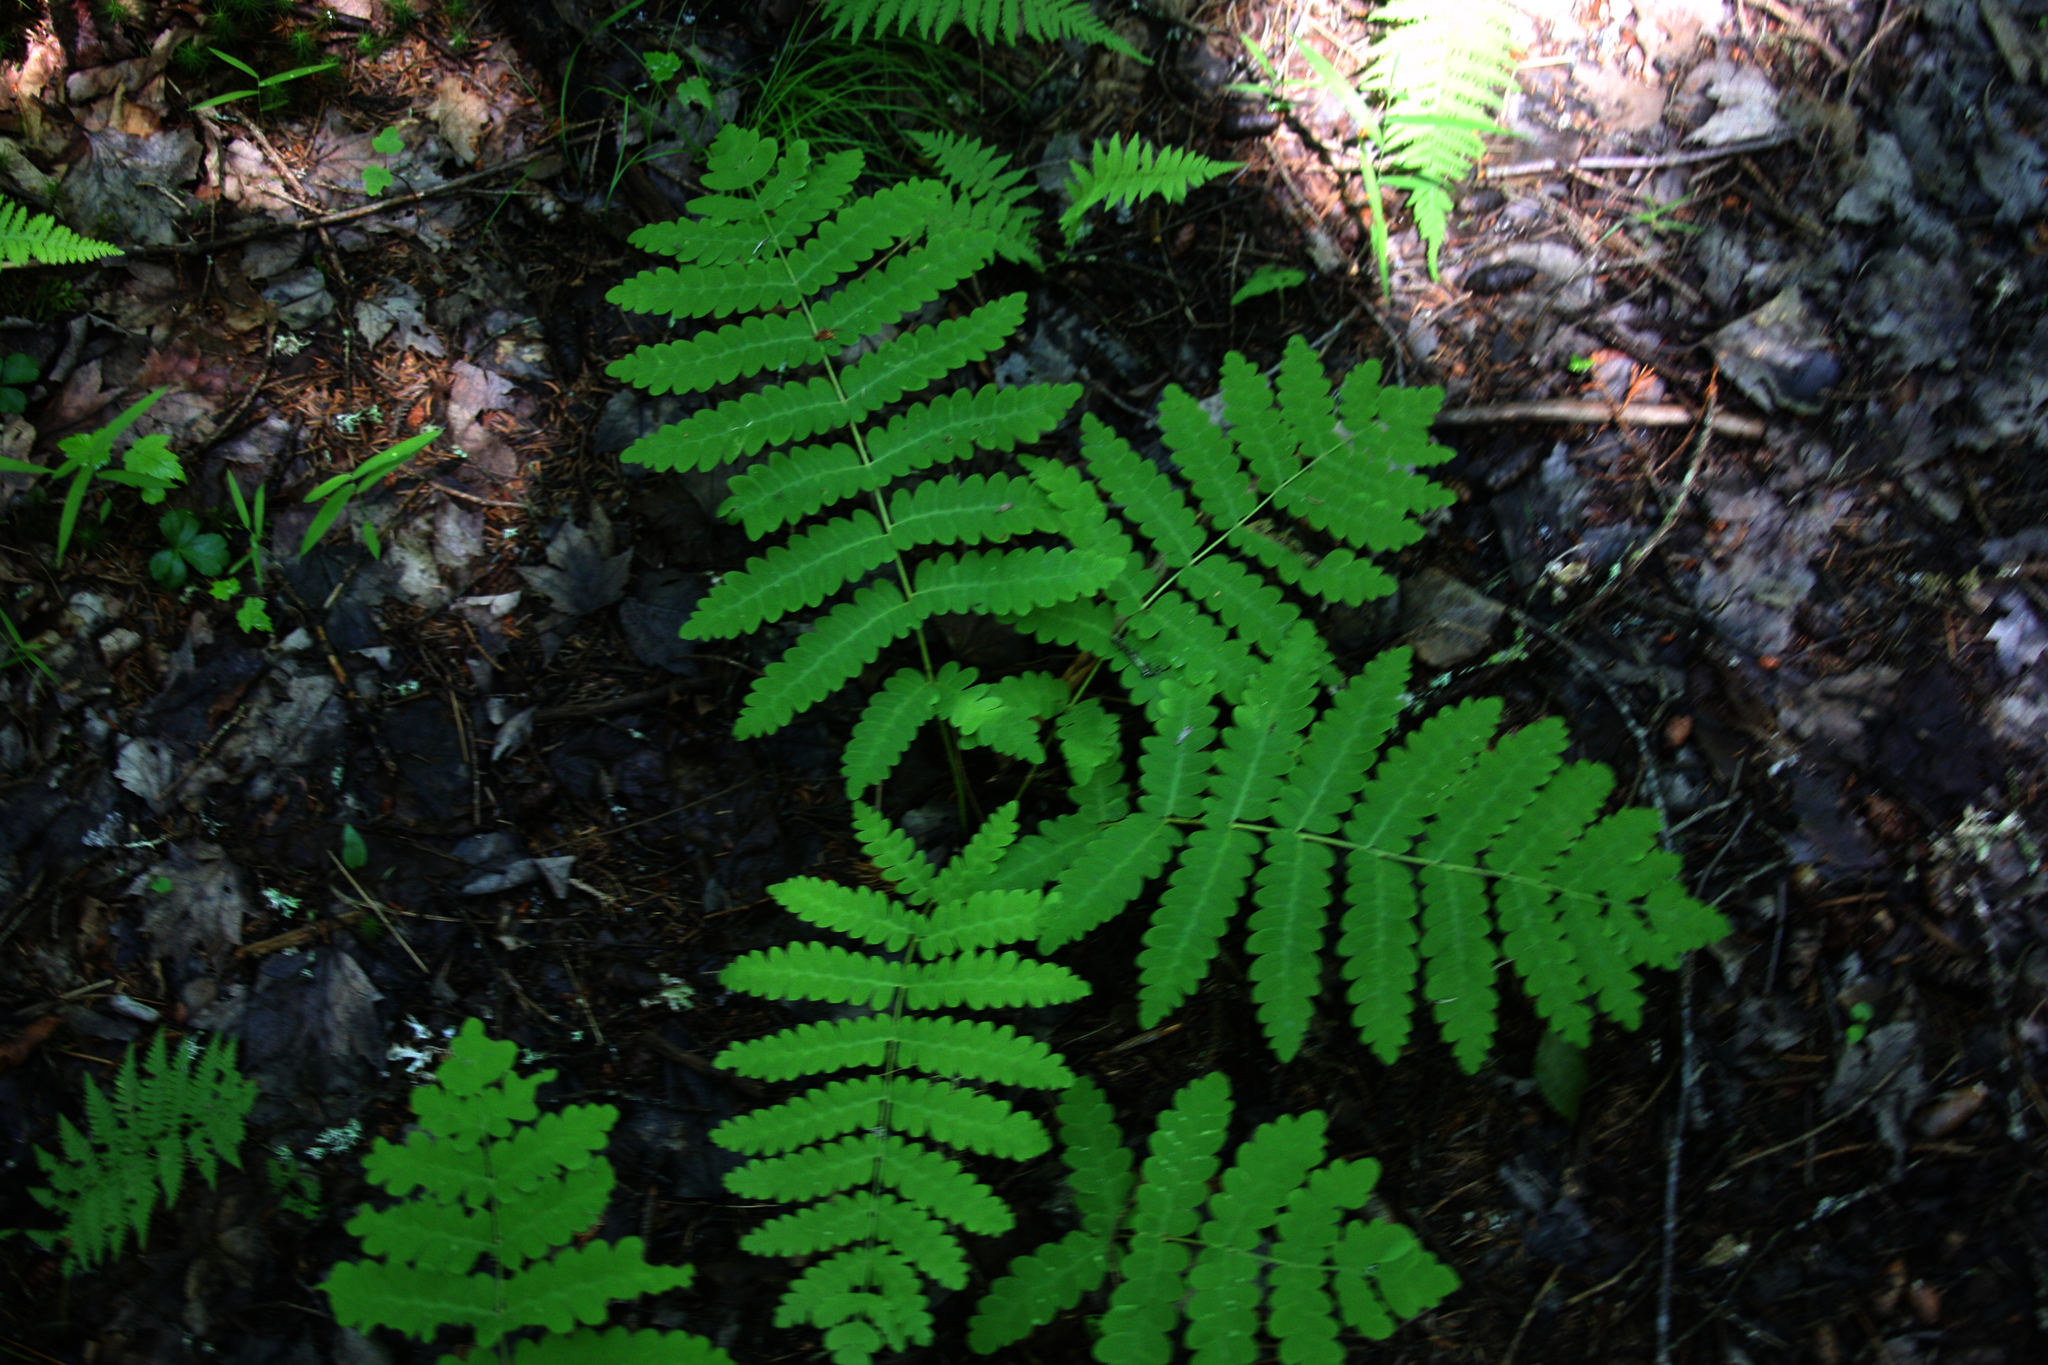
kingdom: Plantae
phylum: Tracheophyta
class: Polypodiopsida
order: Osmundales
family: Osmundaceae
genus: Claytosmunda
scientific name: Claytosmunda claytoniana
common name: Clayton's fern
